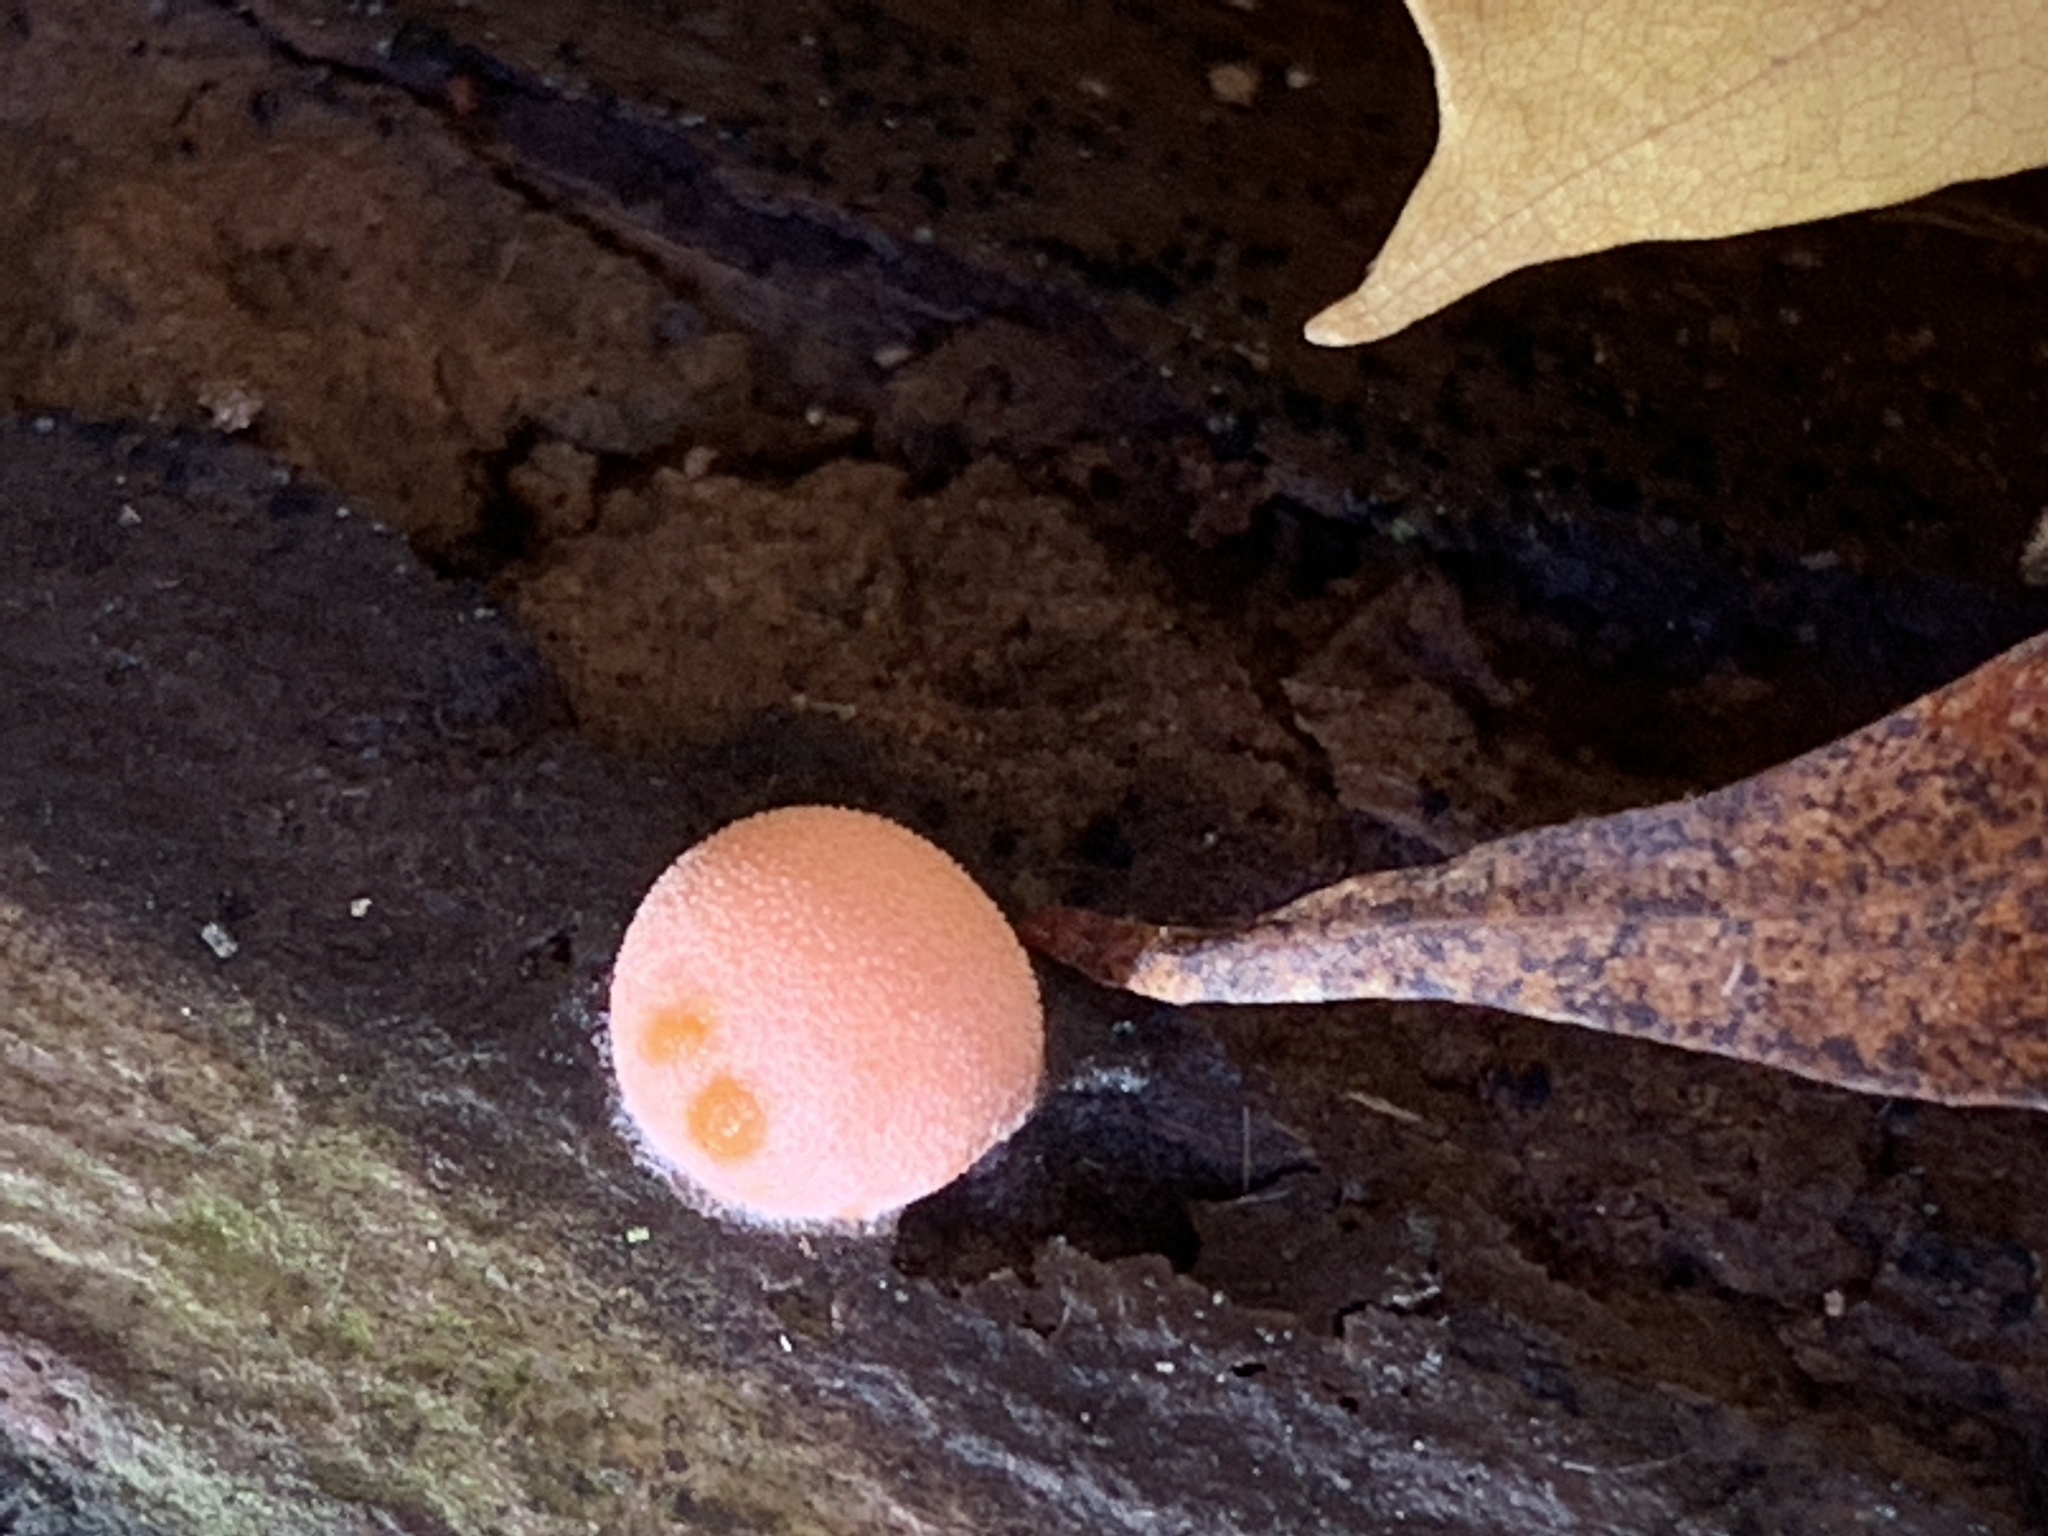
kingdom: Protozoa
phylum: Mycetozoa
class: Myxomycetes
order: Cribrariales
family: Tubiferaceae
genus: Lycogala
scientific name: Lycogala epidendrum
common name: Wolf's milk
